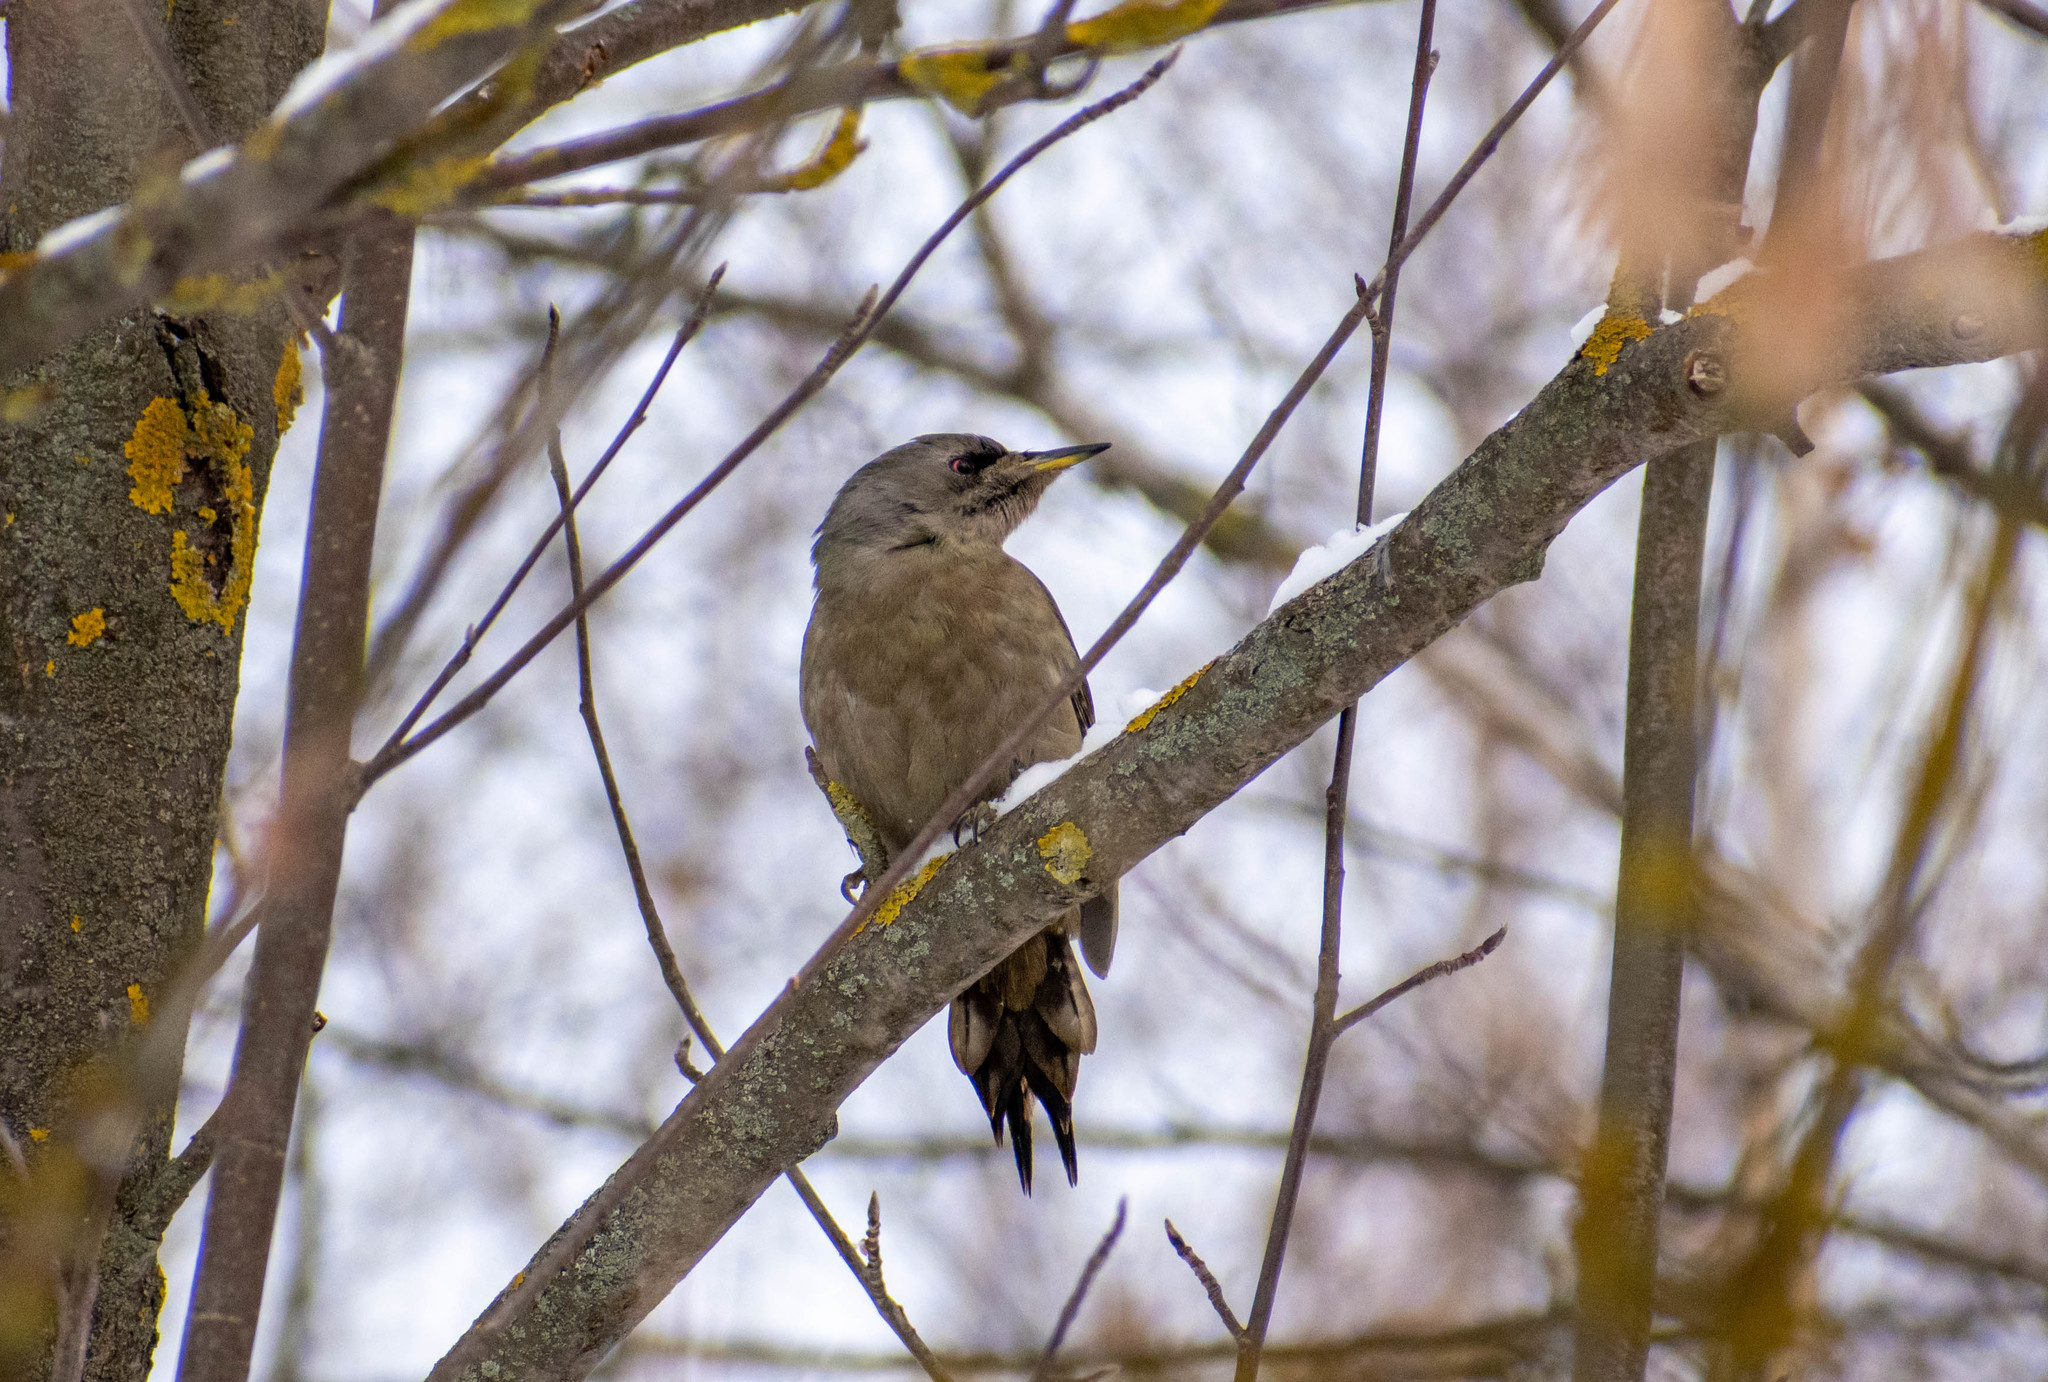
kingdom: Animalia
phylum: Chordata
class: Aves
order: Piciformes
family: Picidae
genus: Picus
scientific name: Picus canus
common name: Grey-headed woodpecker
